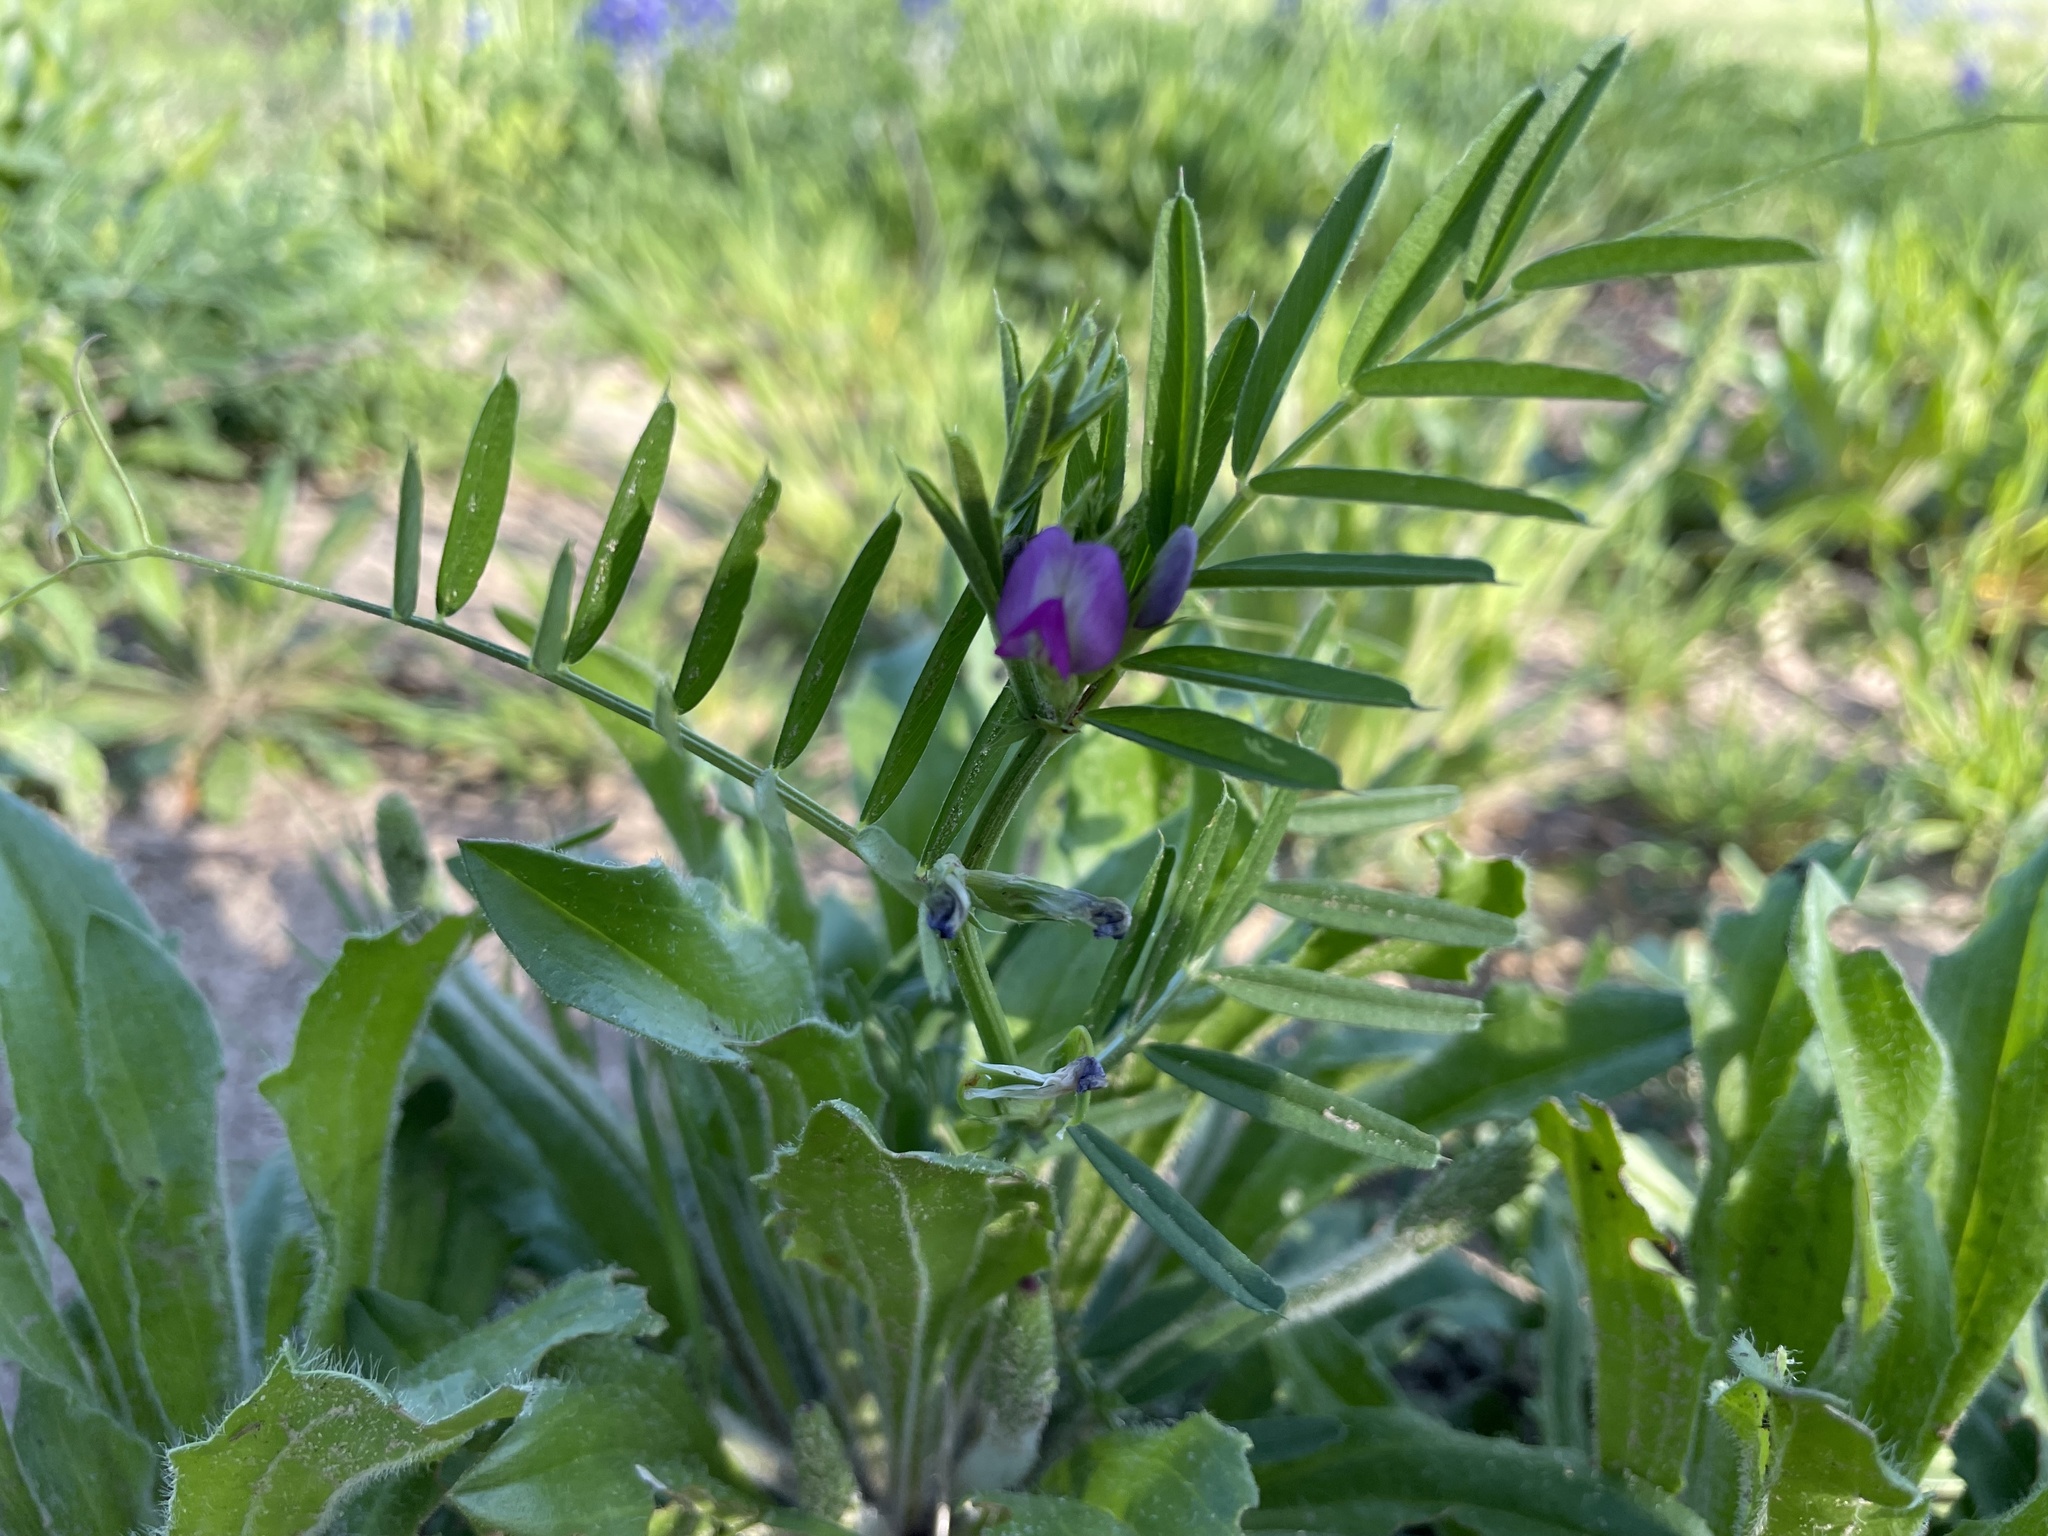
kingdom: Plantae
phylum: Tracheophyta
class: Magnoliopsida
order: Fabales
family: Fabaceae
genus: Vicia
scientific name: Vicia sativa
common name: Garden vetch
